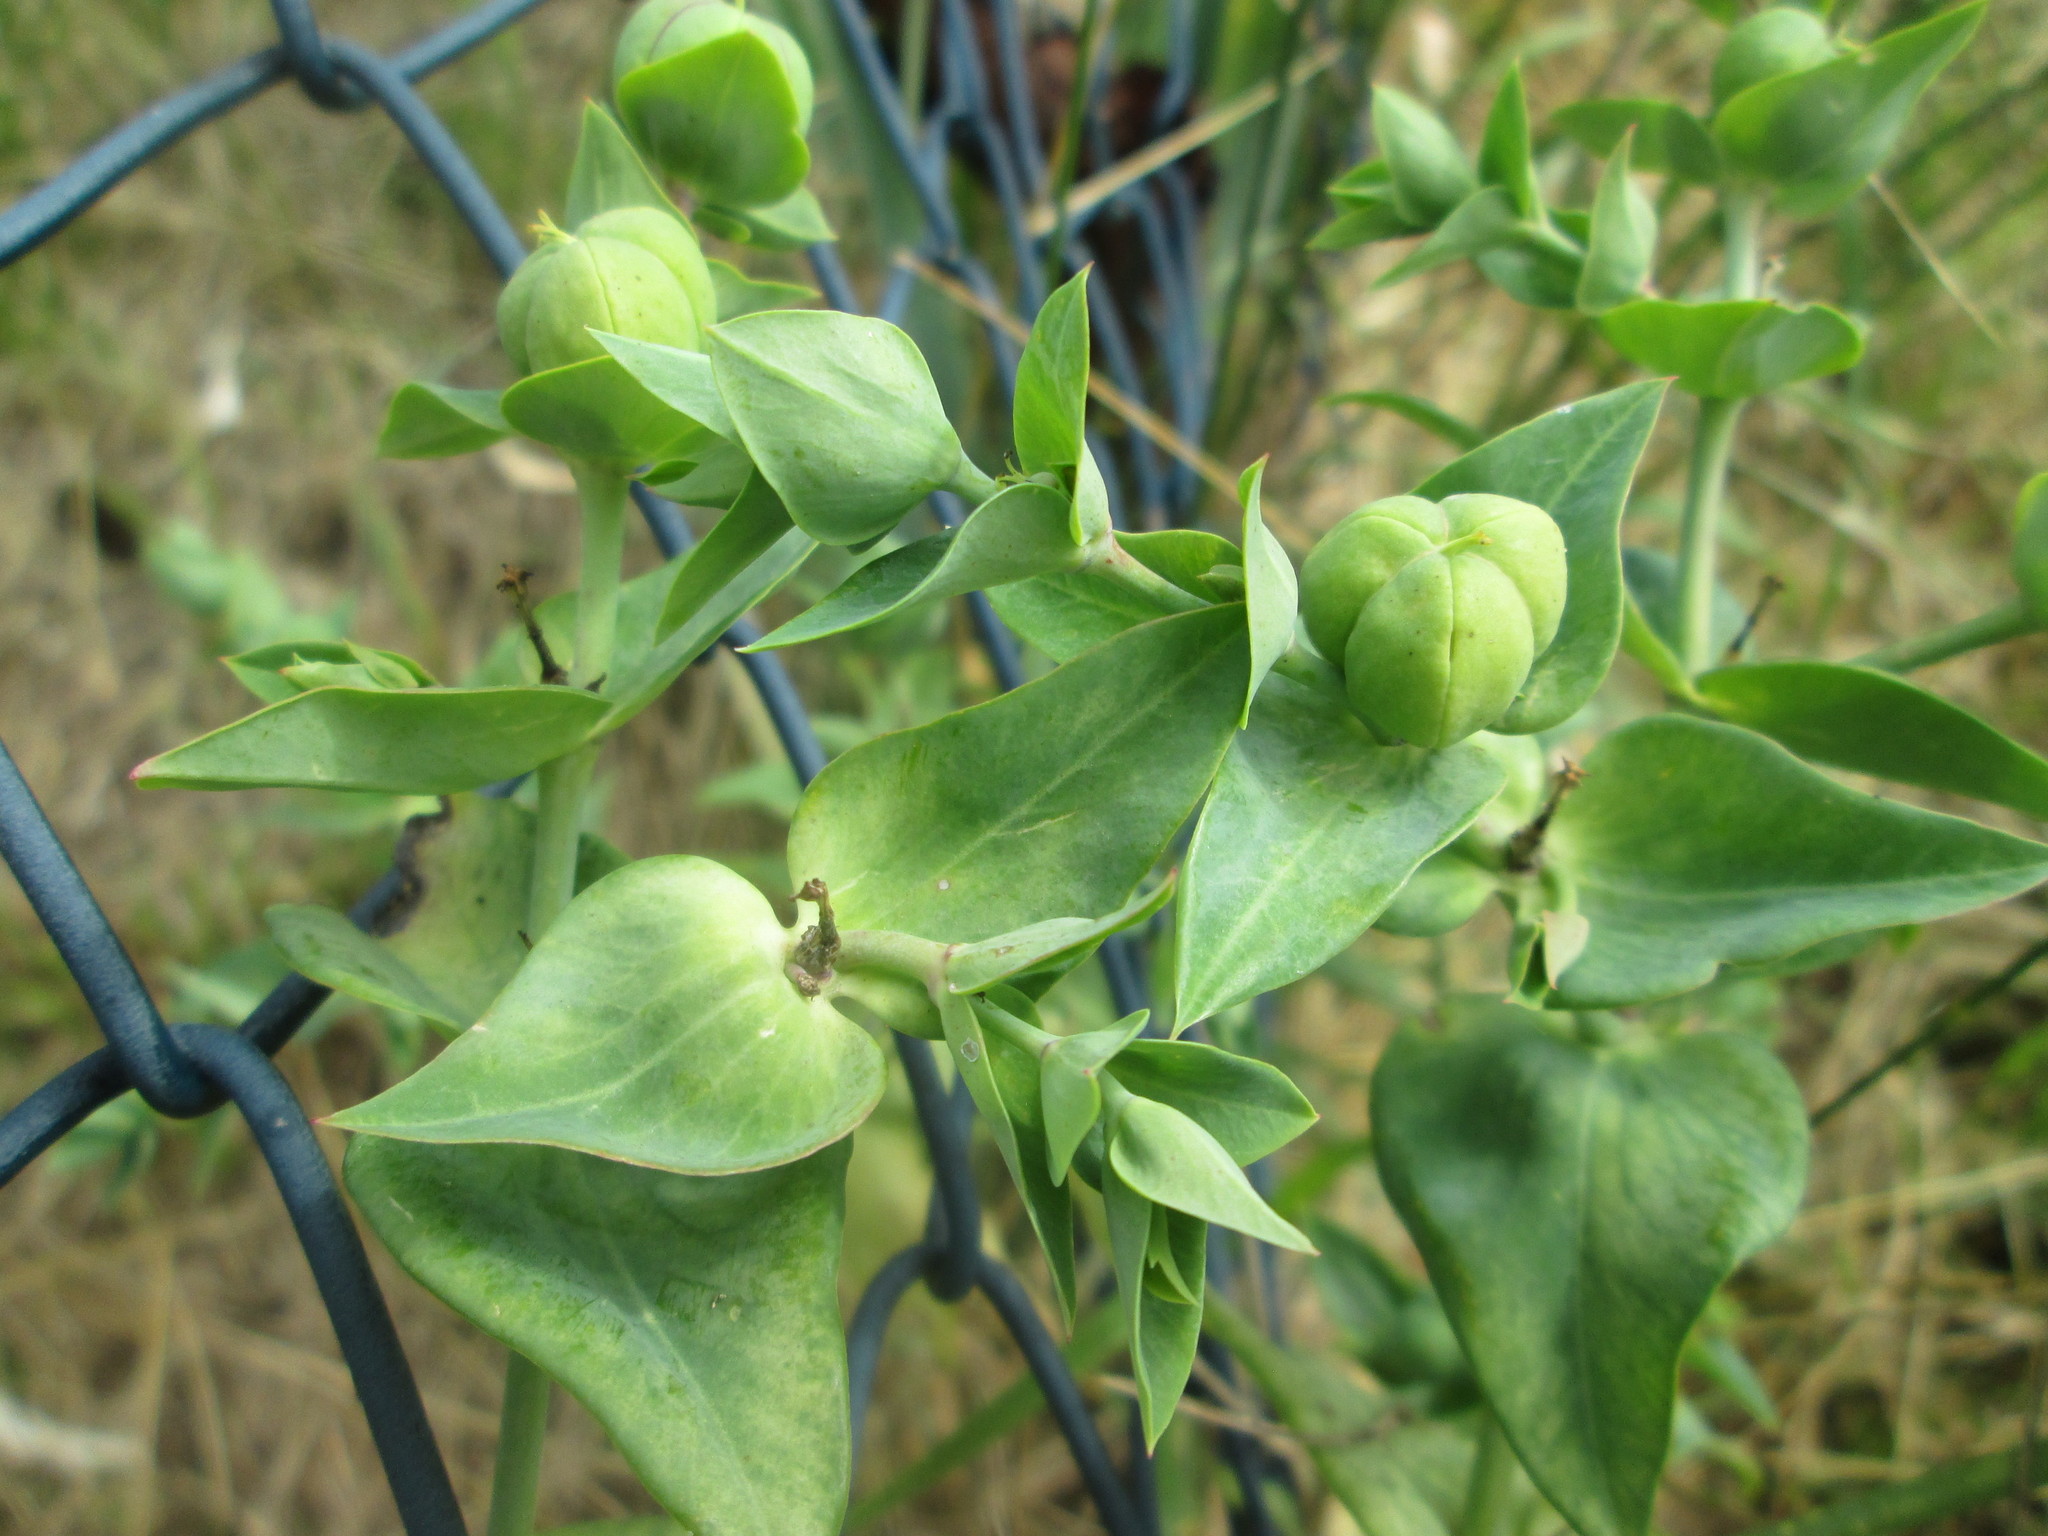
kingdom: Plantae
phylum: Tracheophyta
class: Magnoliopsida
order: Malpighiales
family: Euphorbiaceae
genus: Euphorbia
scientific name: Euphorbia lathyris
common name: Caper spurge
